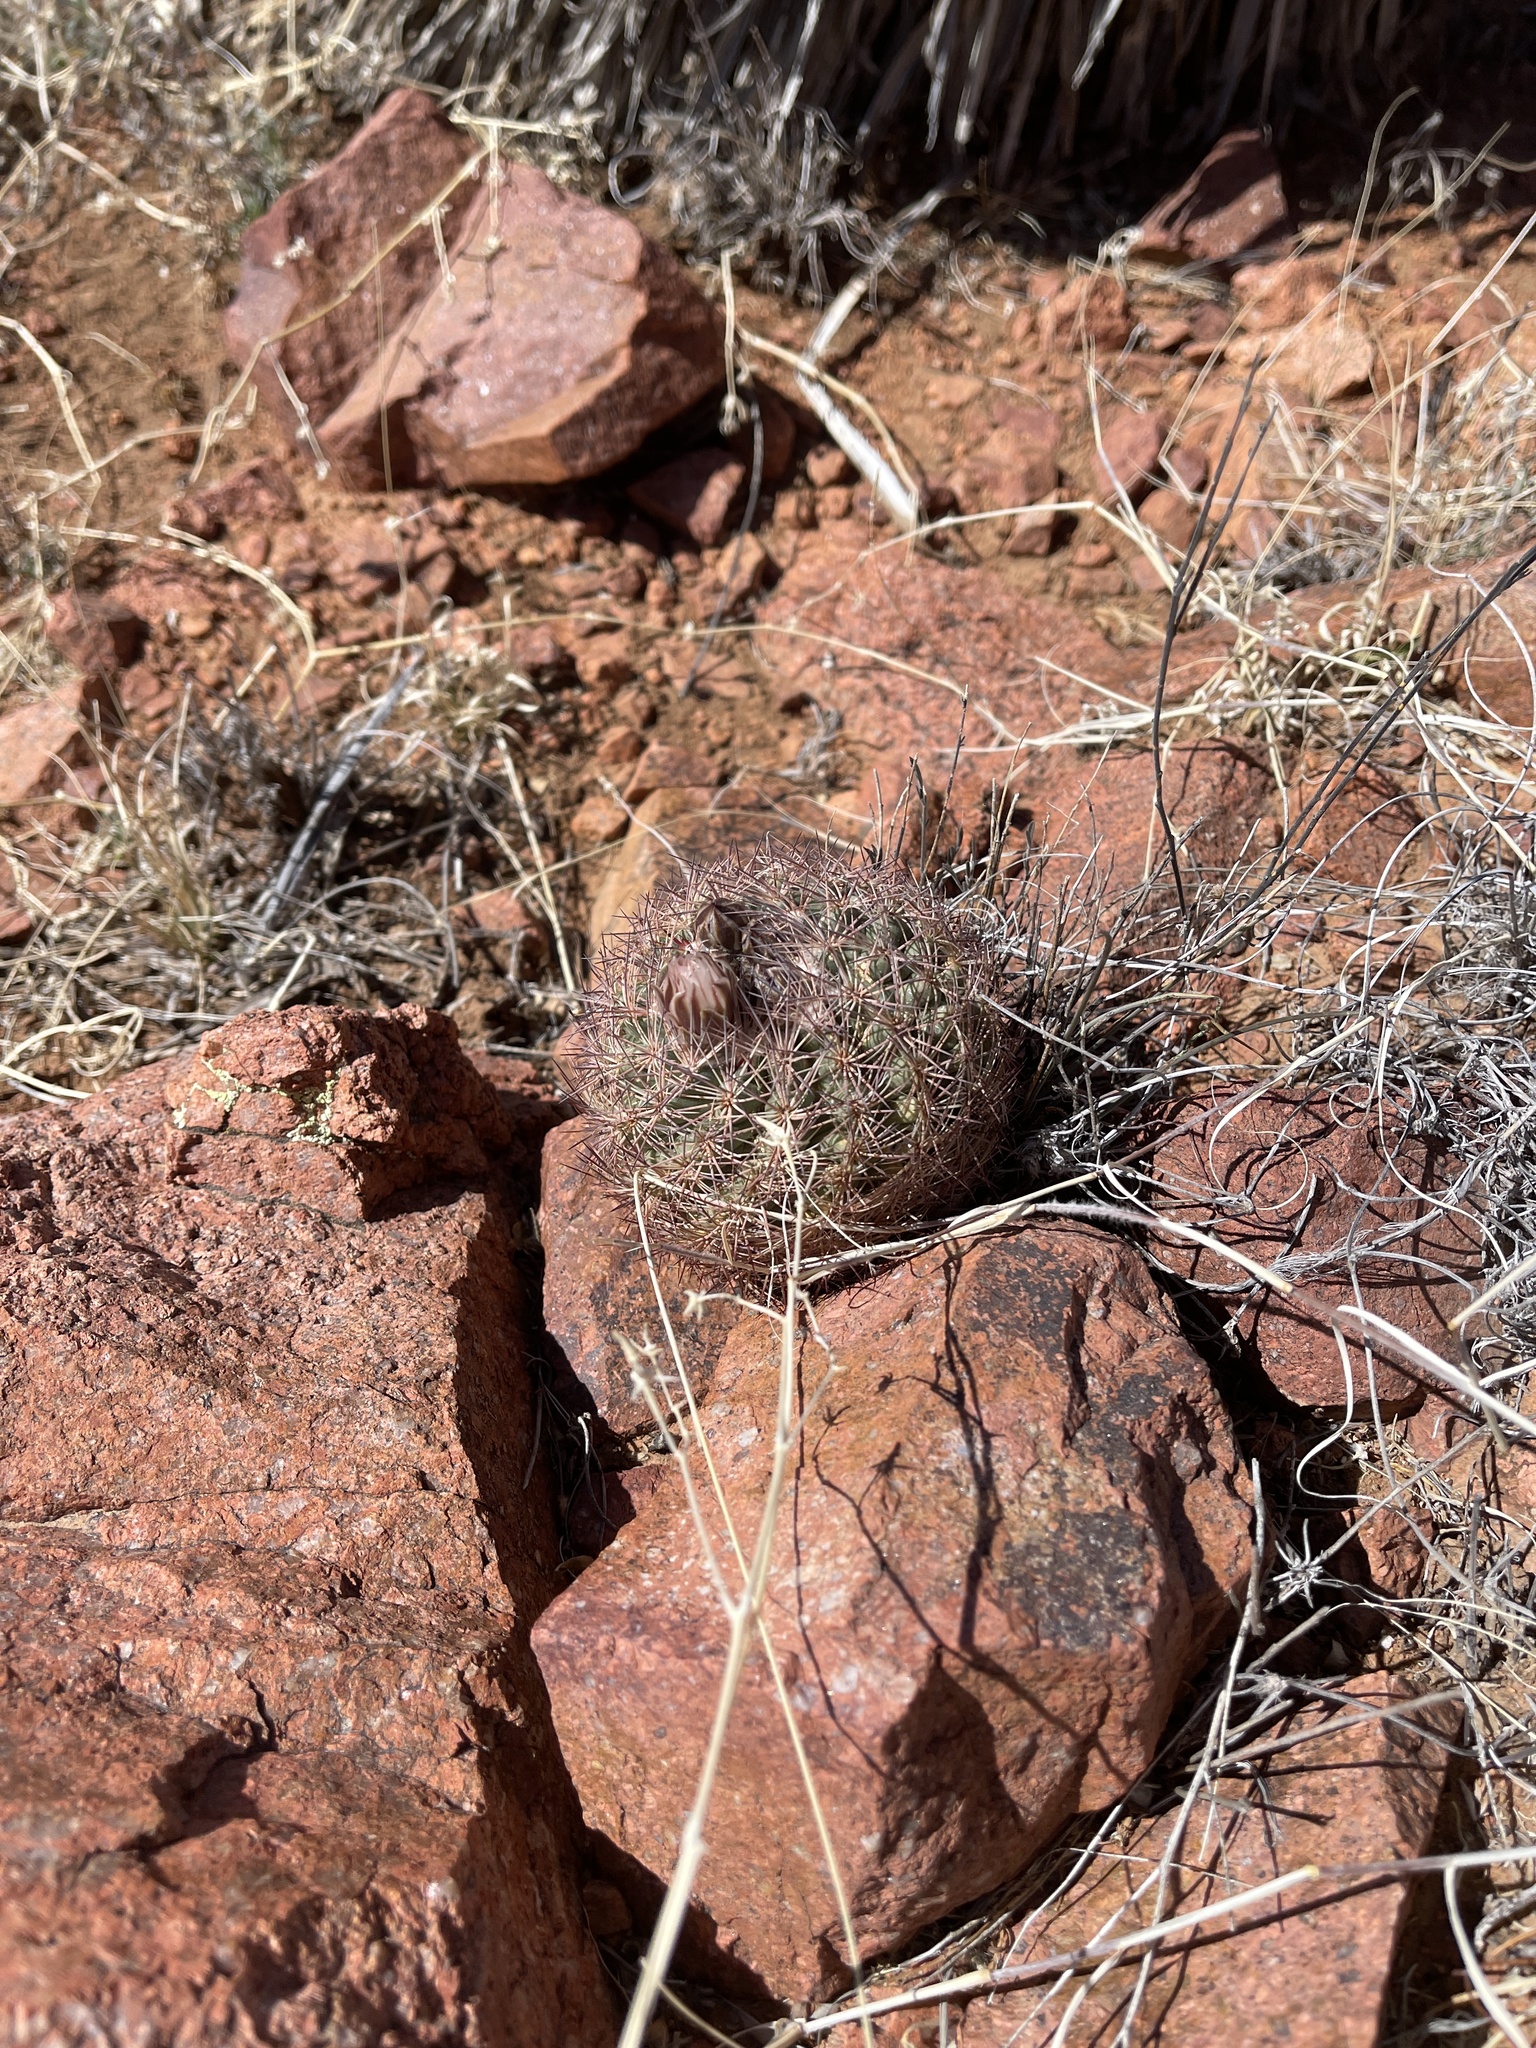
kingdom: Plantae
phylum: Tracheophyta
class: Magnoliopsida
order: Caryophyllales
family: Cactaceae
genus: Sclerocactus
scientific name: Sclerocactus intertextus
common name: White fish-hook cactus
